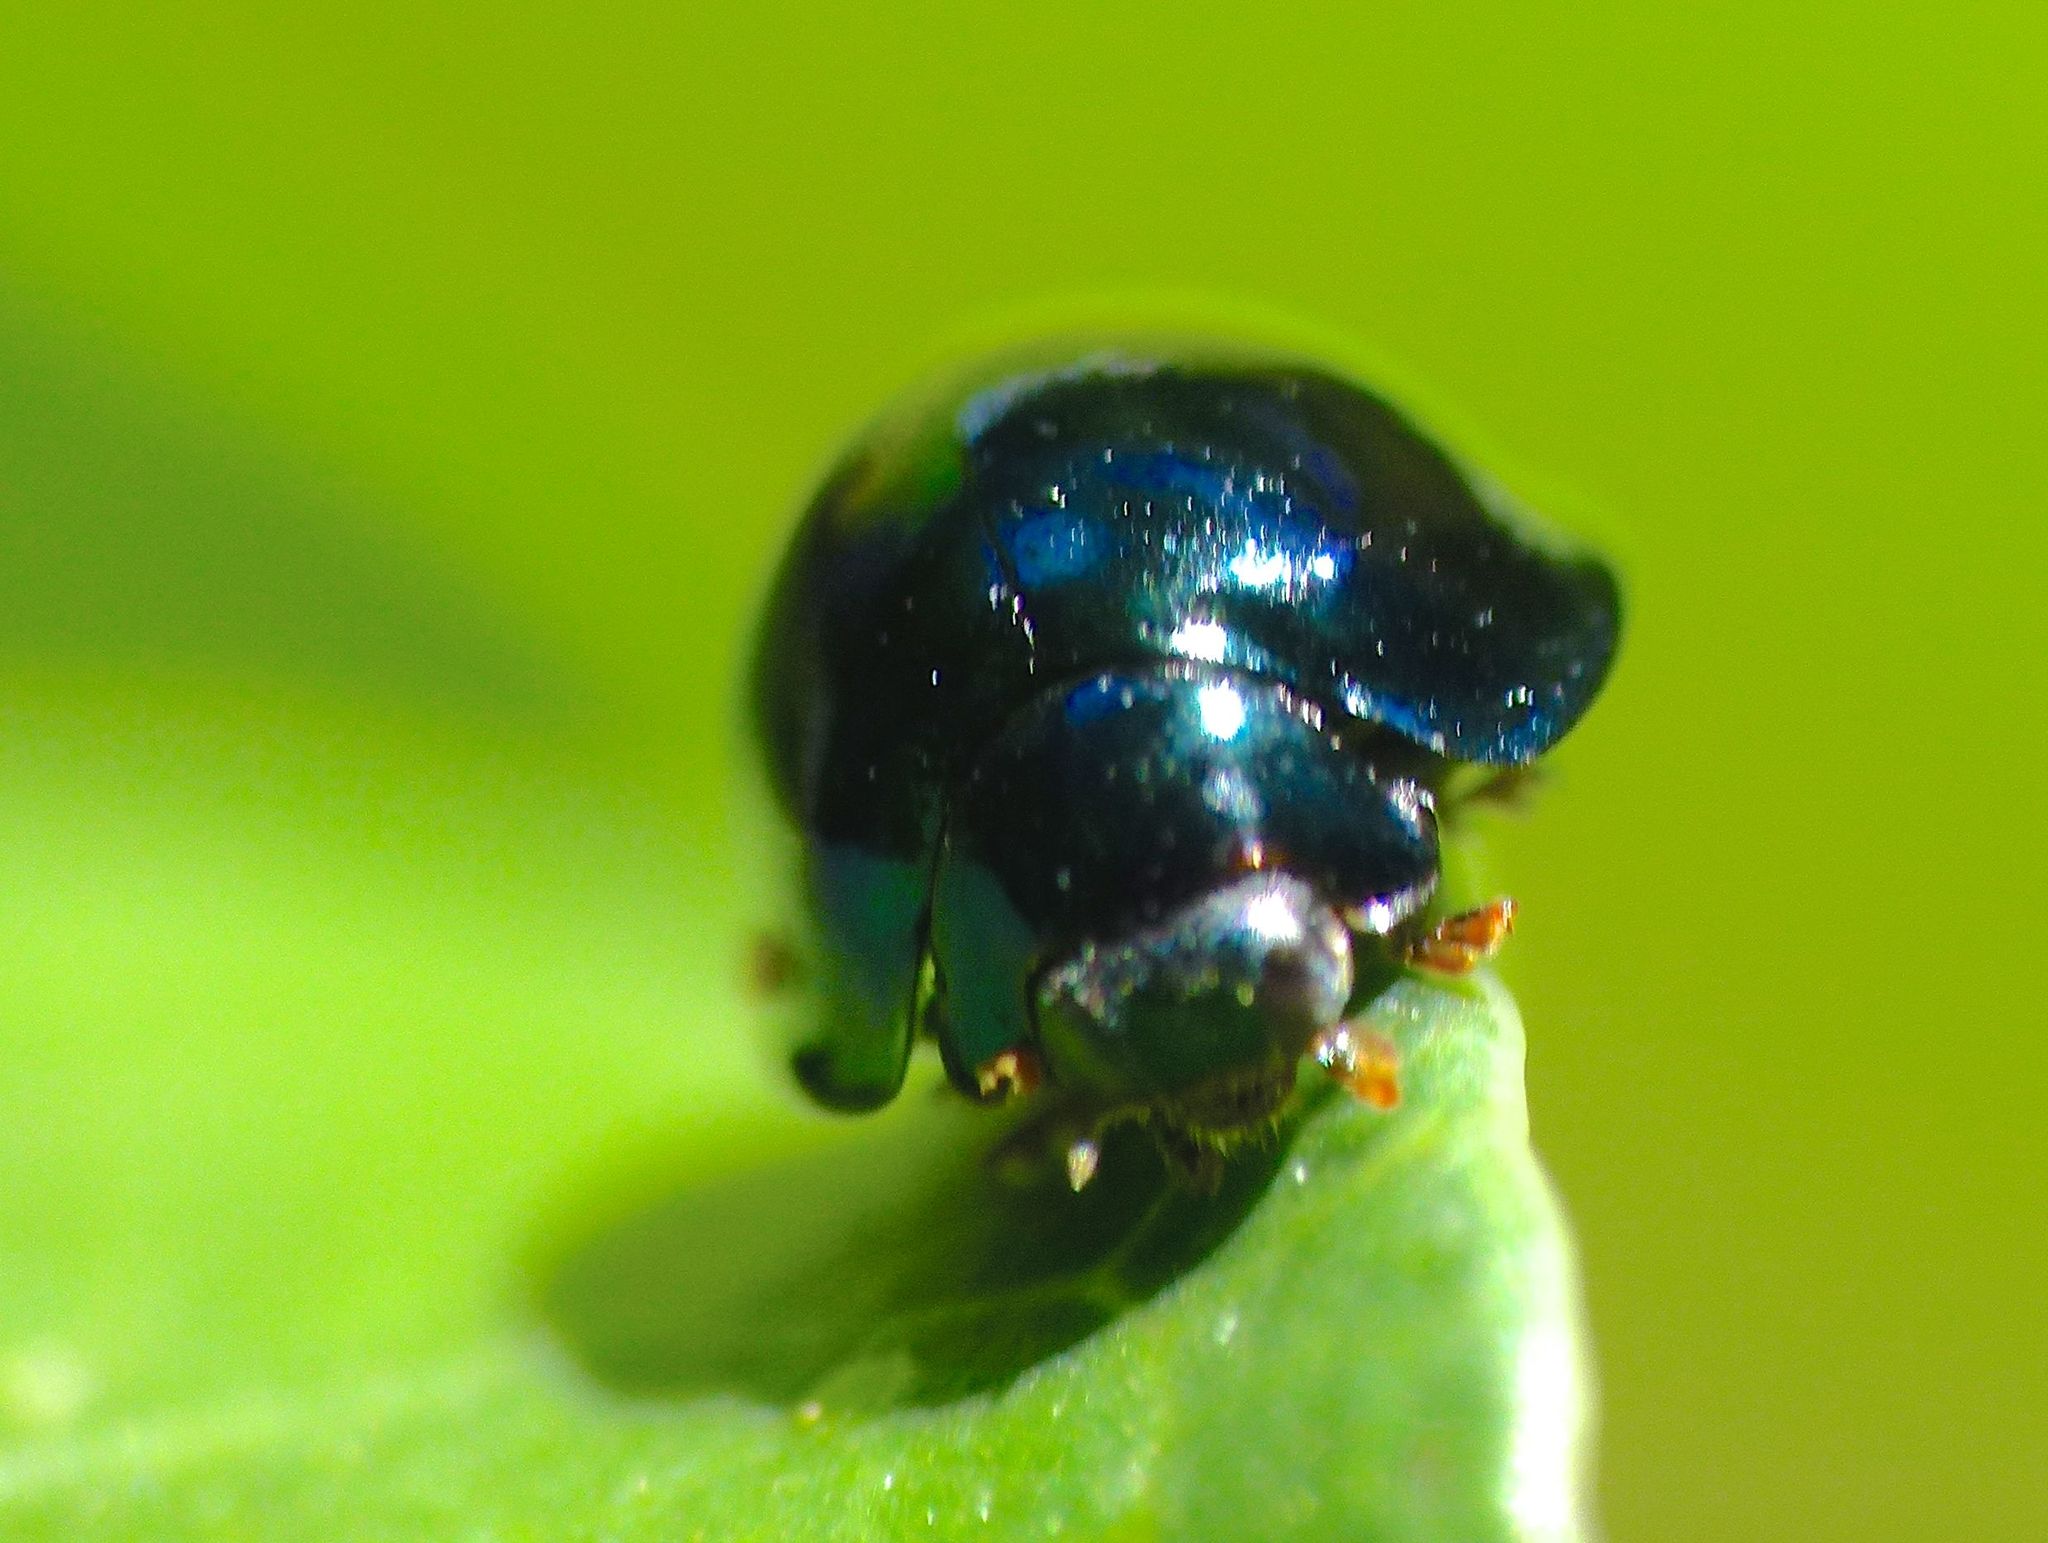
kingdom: Animalia
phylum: Arthropoda
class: Insecta
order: Coleoptera
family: Coccinellidae
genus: Halmus
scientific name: Halmus chalybeus
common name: Steel blue ladybird beetle
